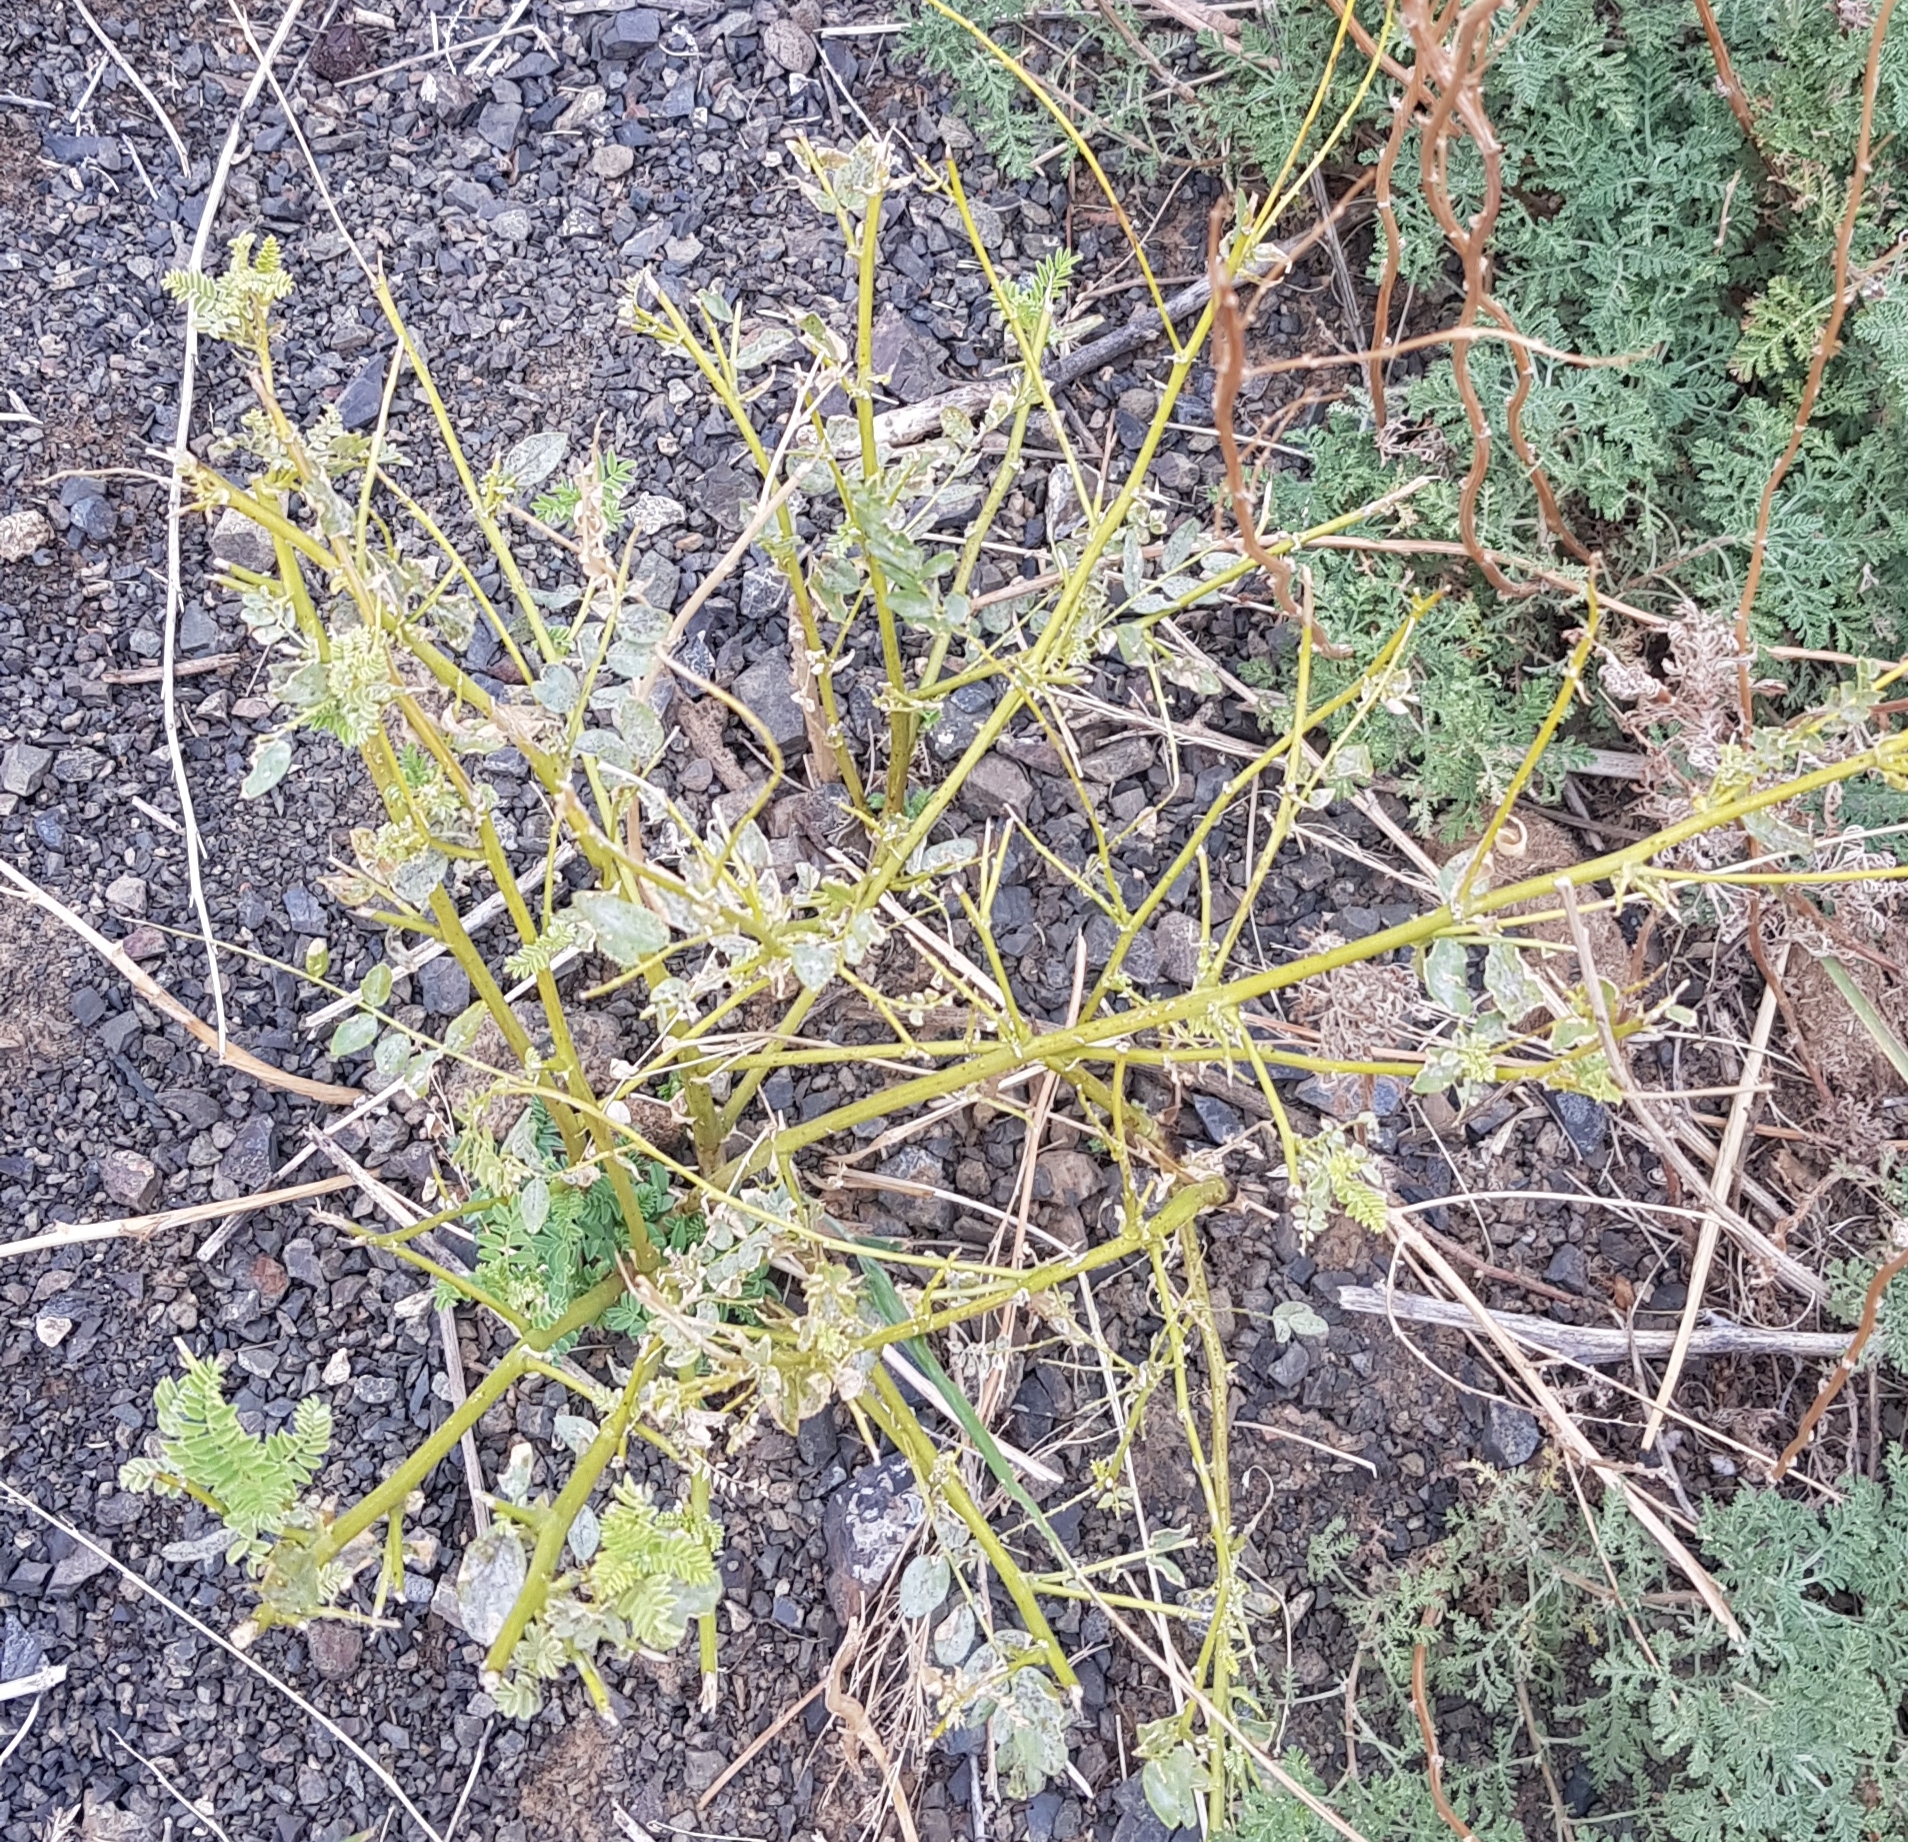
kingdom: Plantae
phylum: Tracheophyta
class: Magnoliopsida
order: Fabales
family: Fabaceae
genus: Astragalus
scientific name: Astragalus chinensis
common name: Chinese milkvetch
